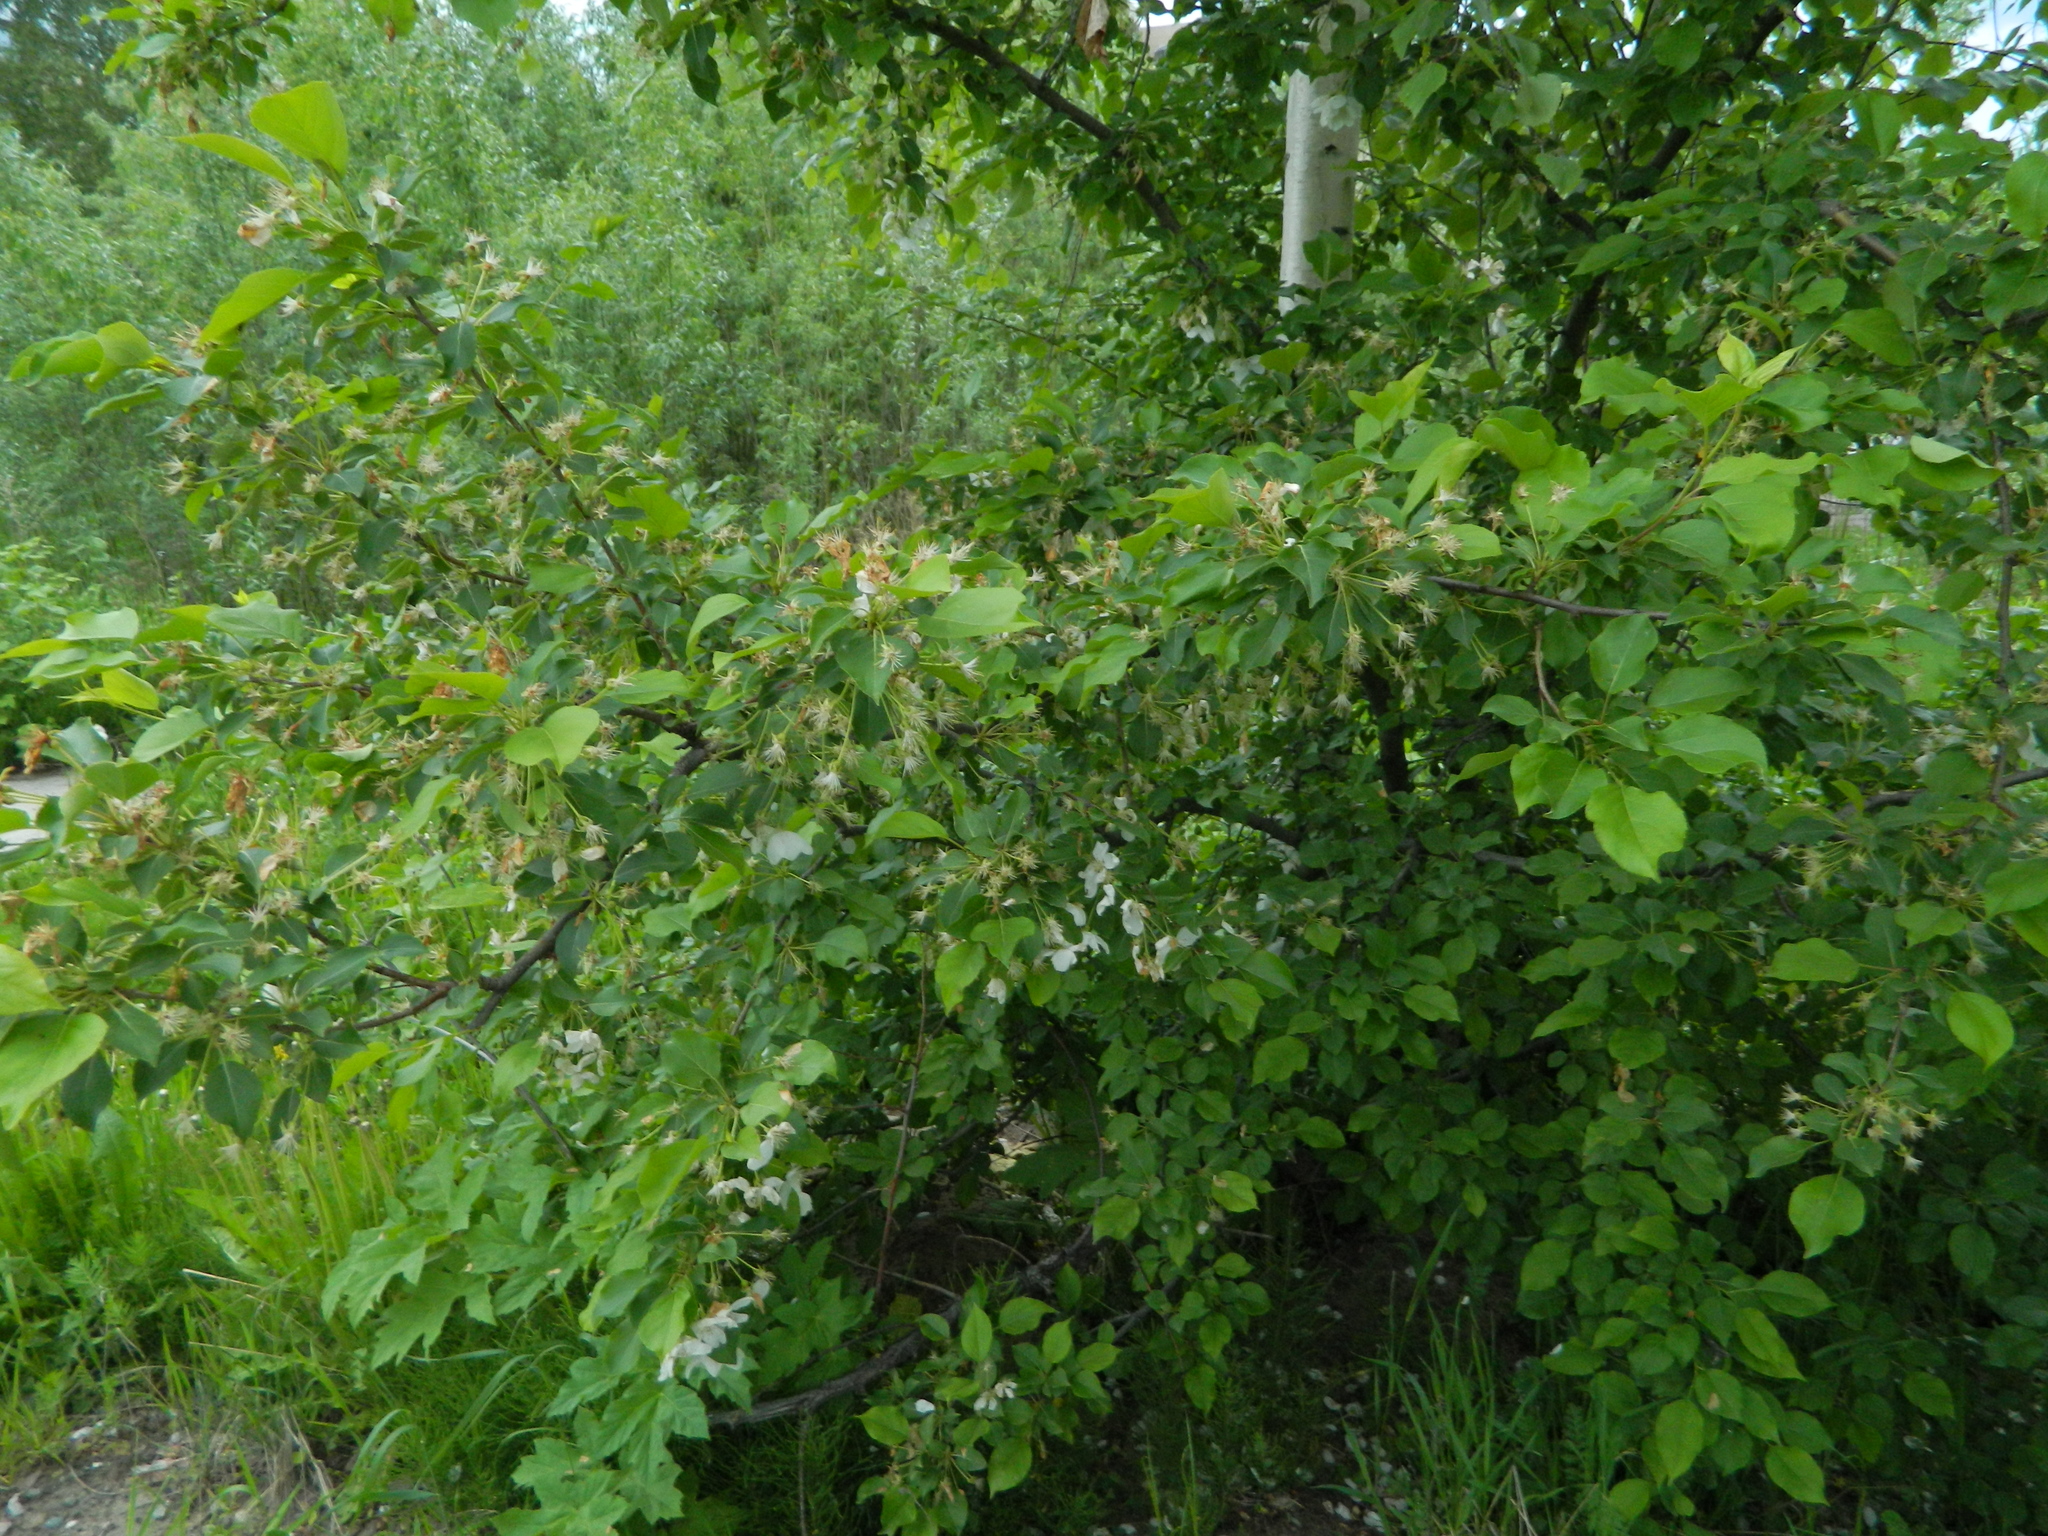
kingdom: Plantae
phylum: Tracheophyta
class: Magnoliopsida
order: Rosales
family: Rosaceae
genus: Malus
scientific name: Malus baccata
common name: Siberian crab
